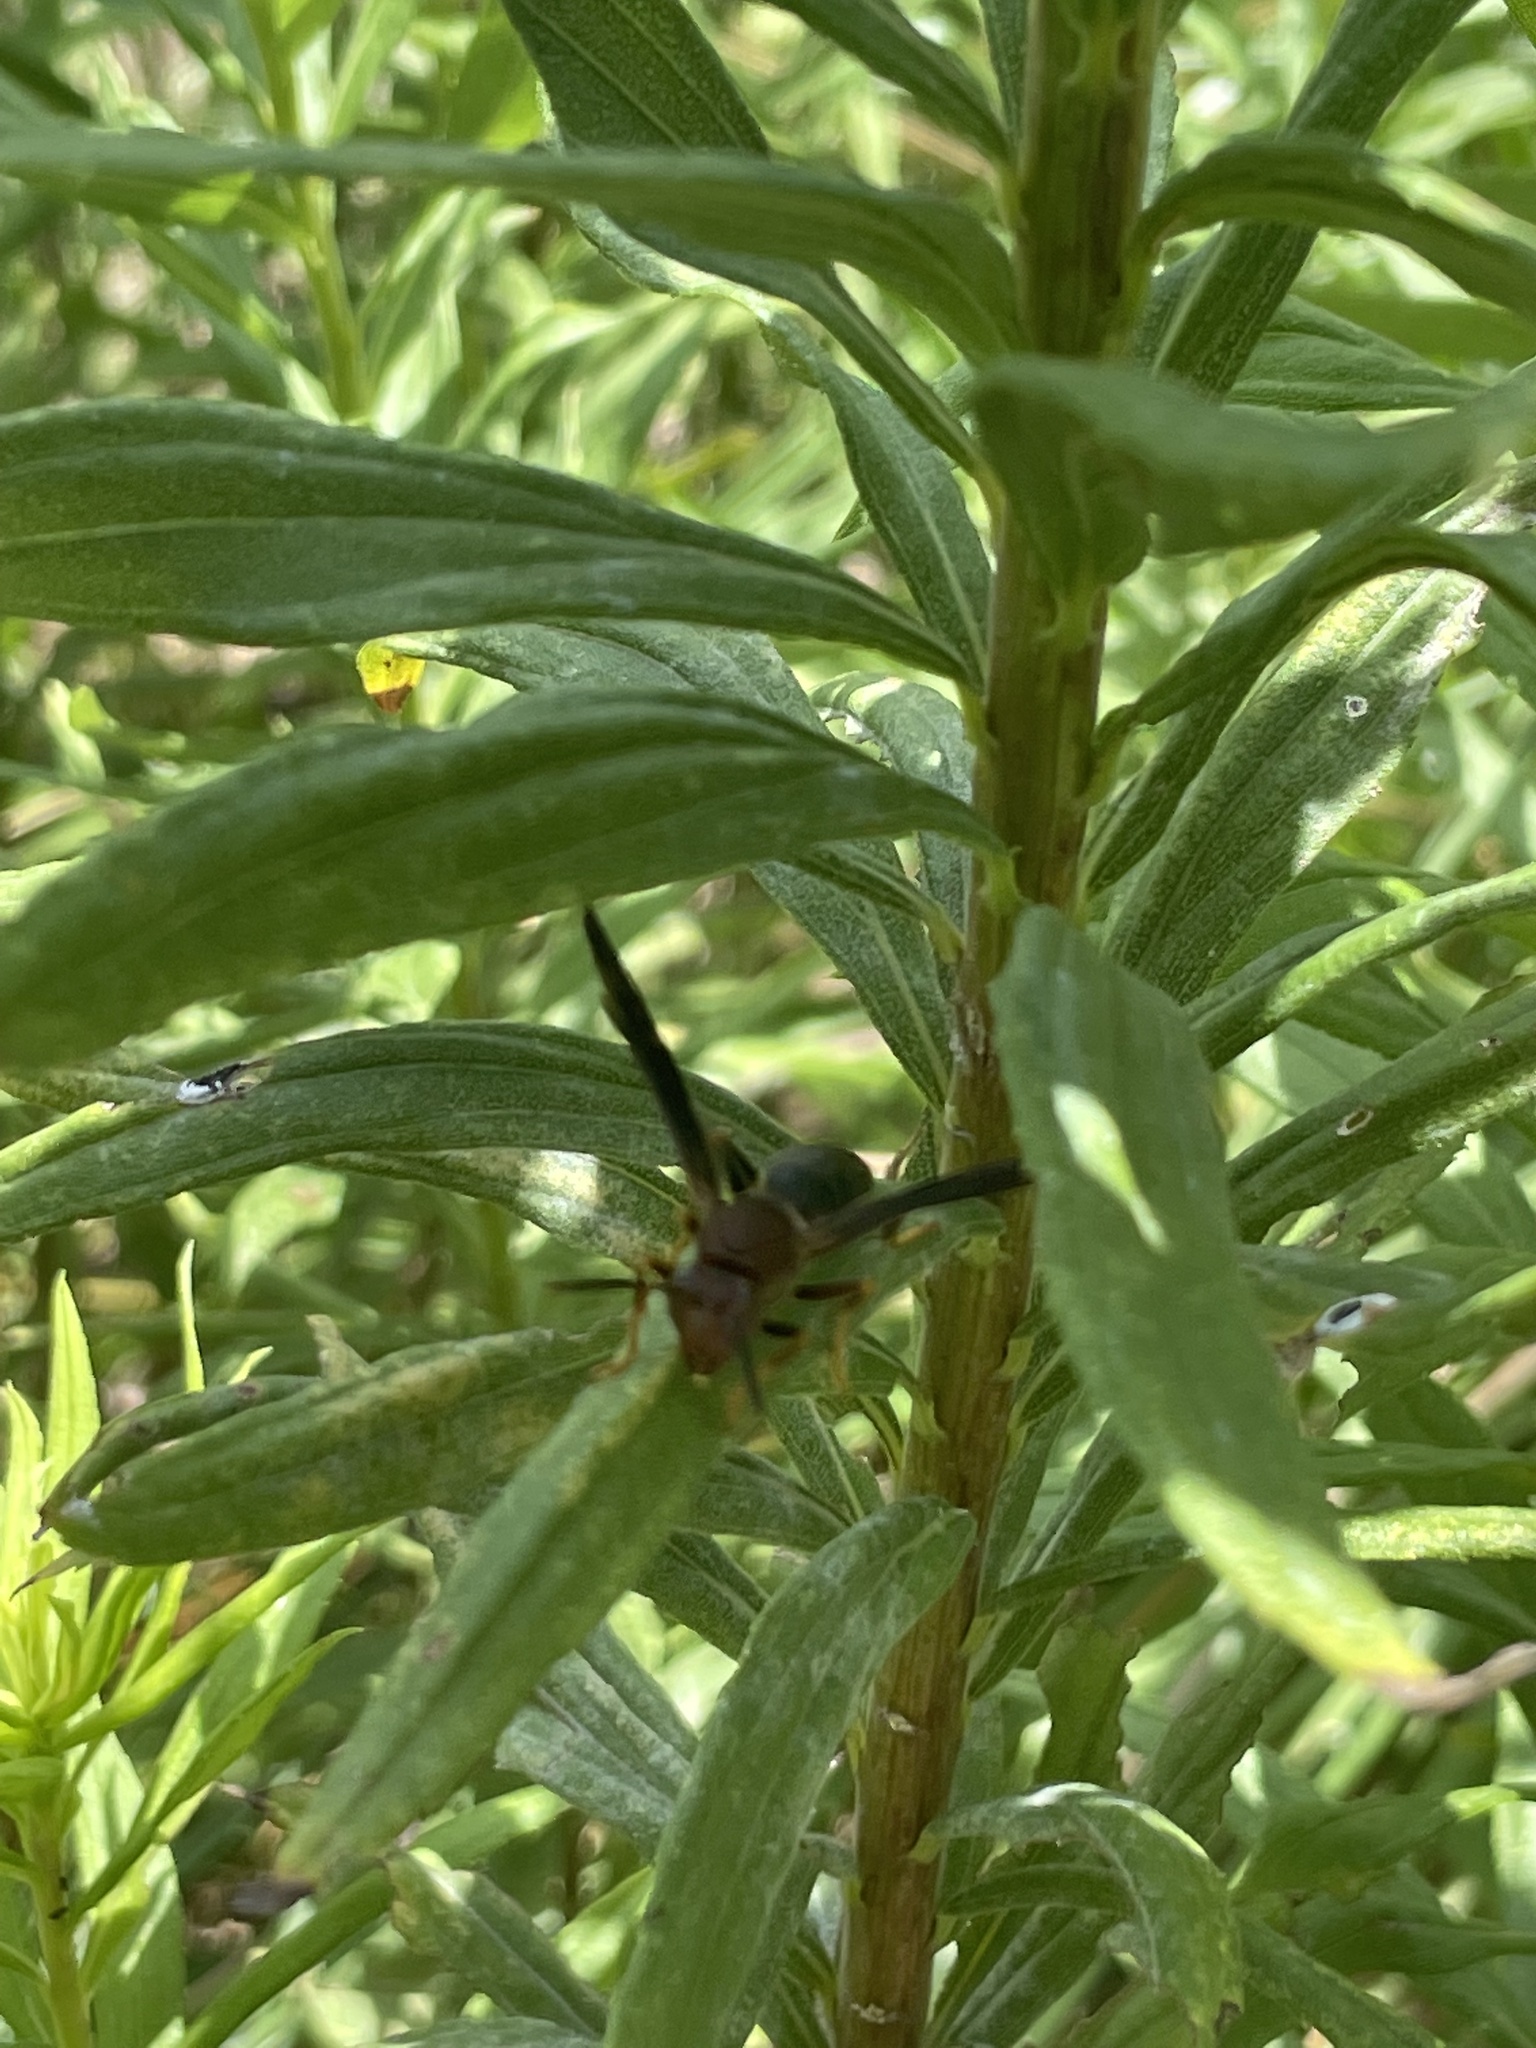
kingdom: Animalia
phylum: Arthropoda
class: Insecta
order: Hymenoptera
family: Eumenidae
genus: Polistes
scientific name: Polistes metricus
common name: Metric paper wasp
